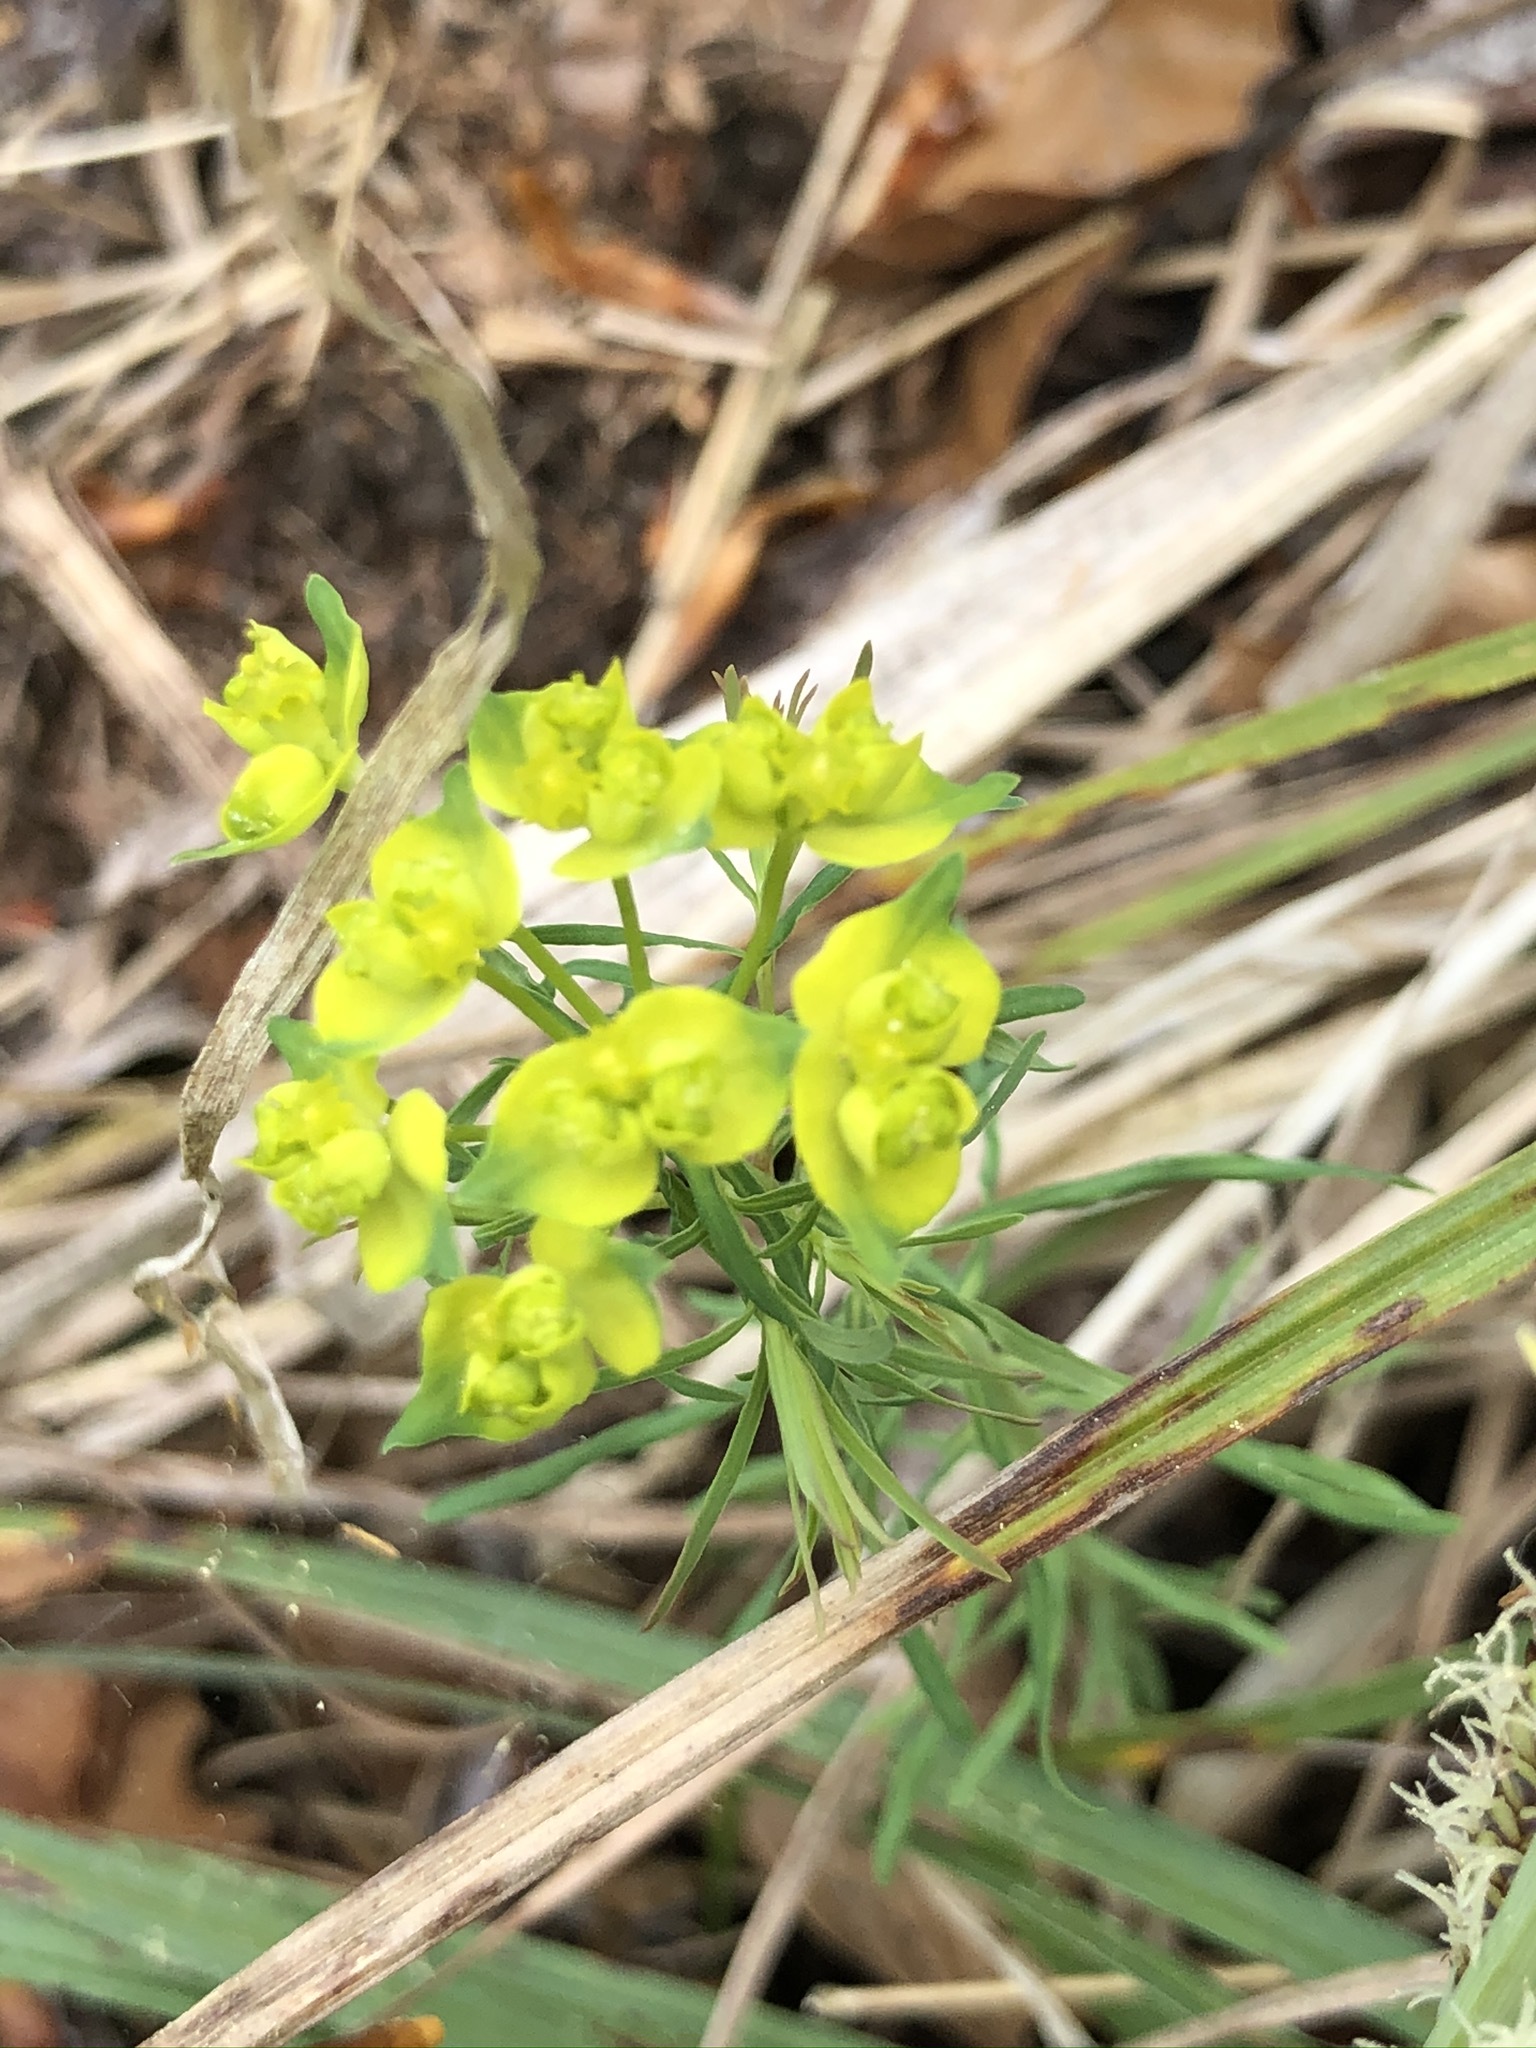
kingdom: Plantae
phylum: Tracheophyta
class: Magnoliopsida
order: Malpighiales
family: Euphorbiaceae
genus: Euphorbia
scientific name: Euphorbia cyparissias
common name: Cypress spurge
